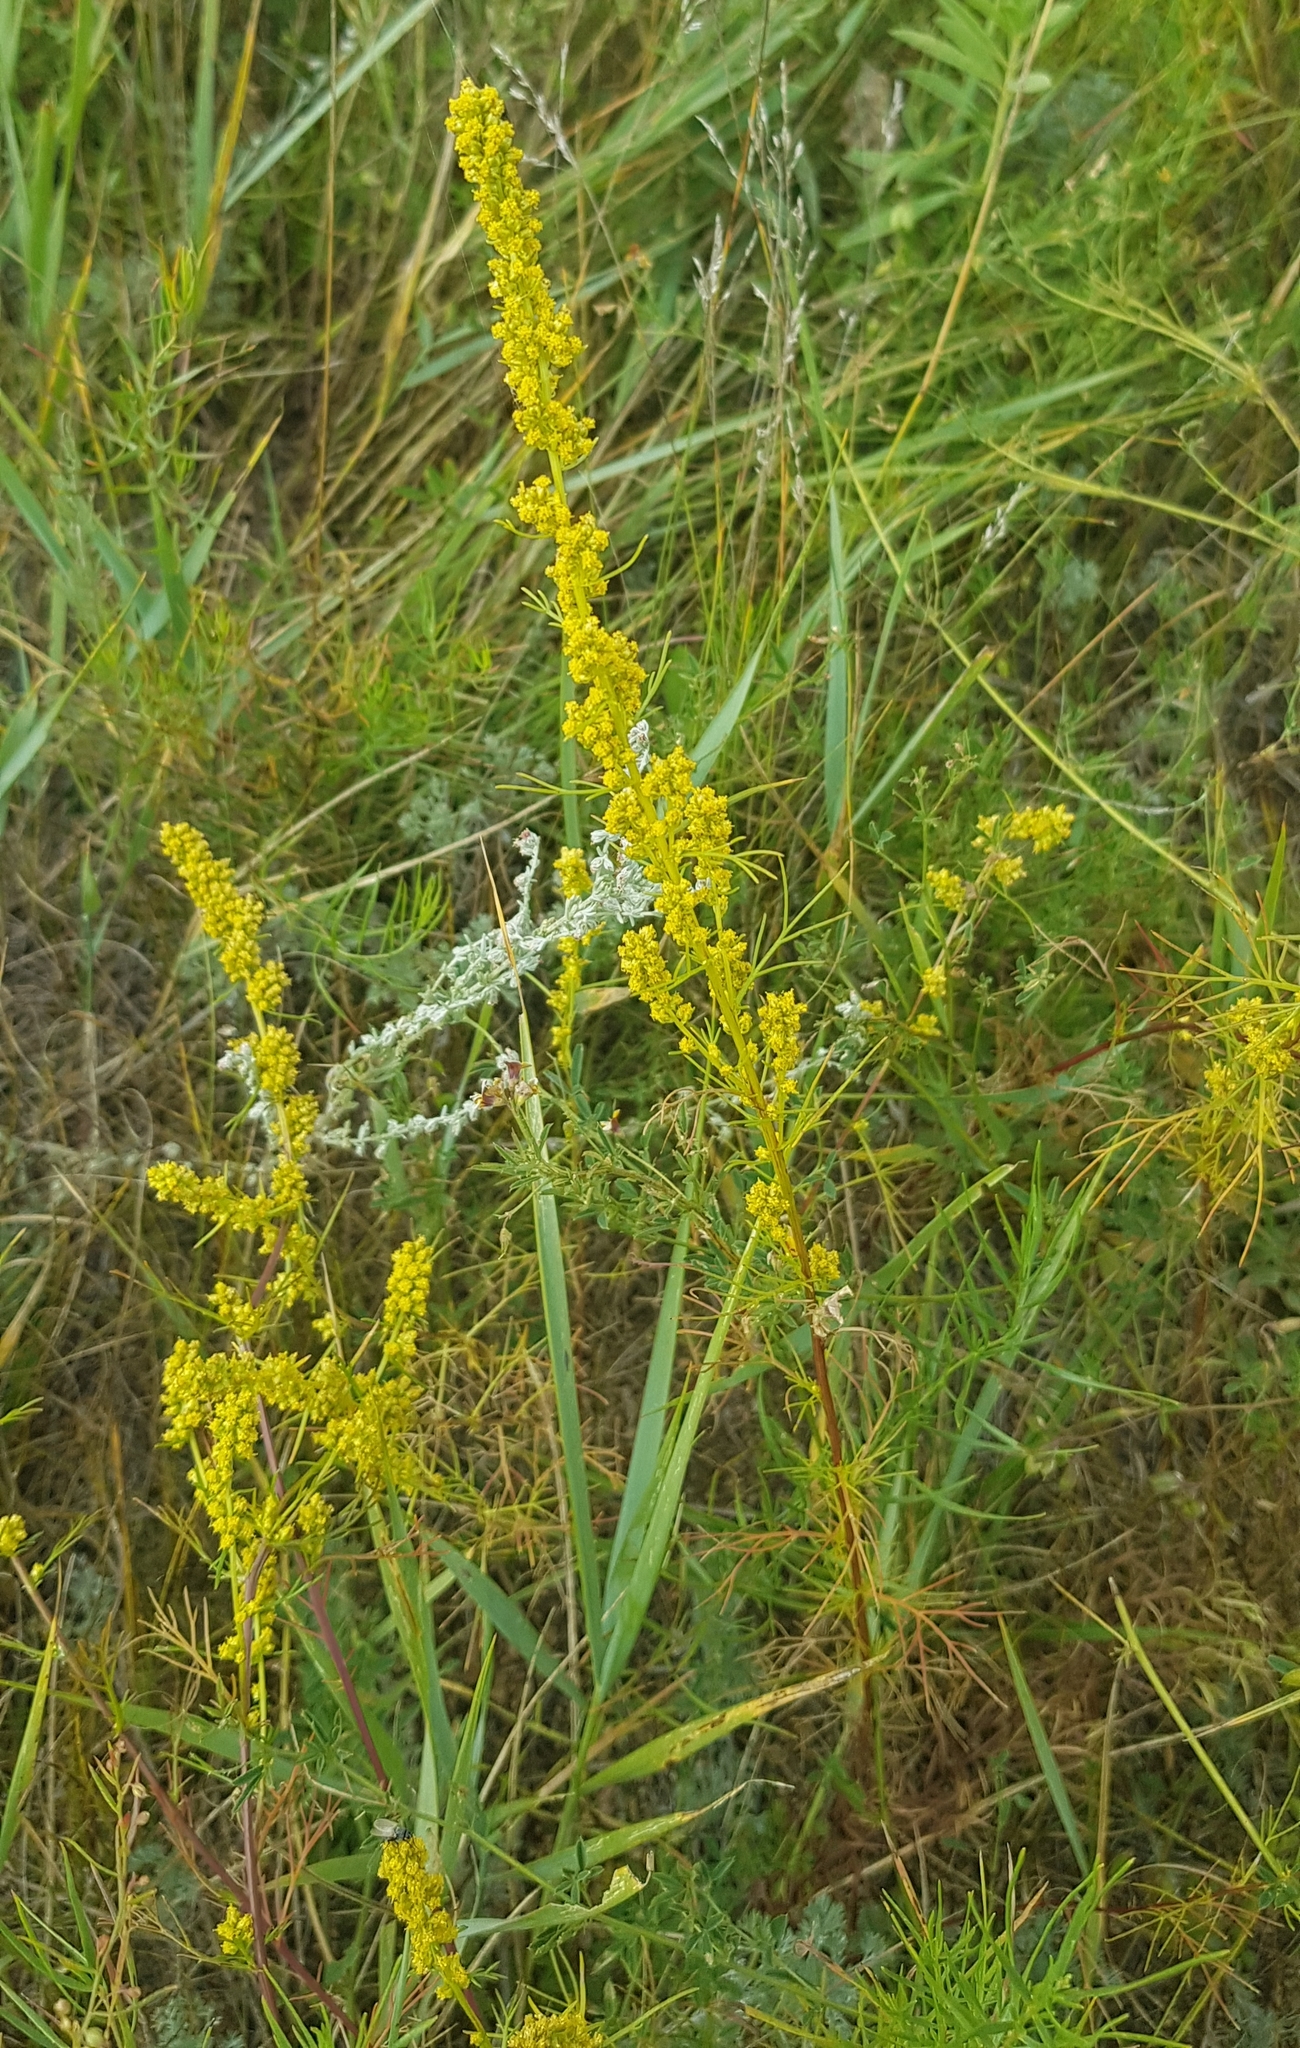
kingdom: Plantae
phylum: Tracheophyta
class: Magnoliopsida
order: Asterales
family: Asteraceae
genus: Artemisia
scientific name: Artemisia palustris
